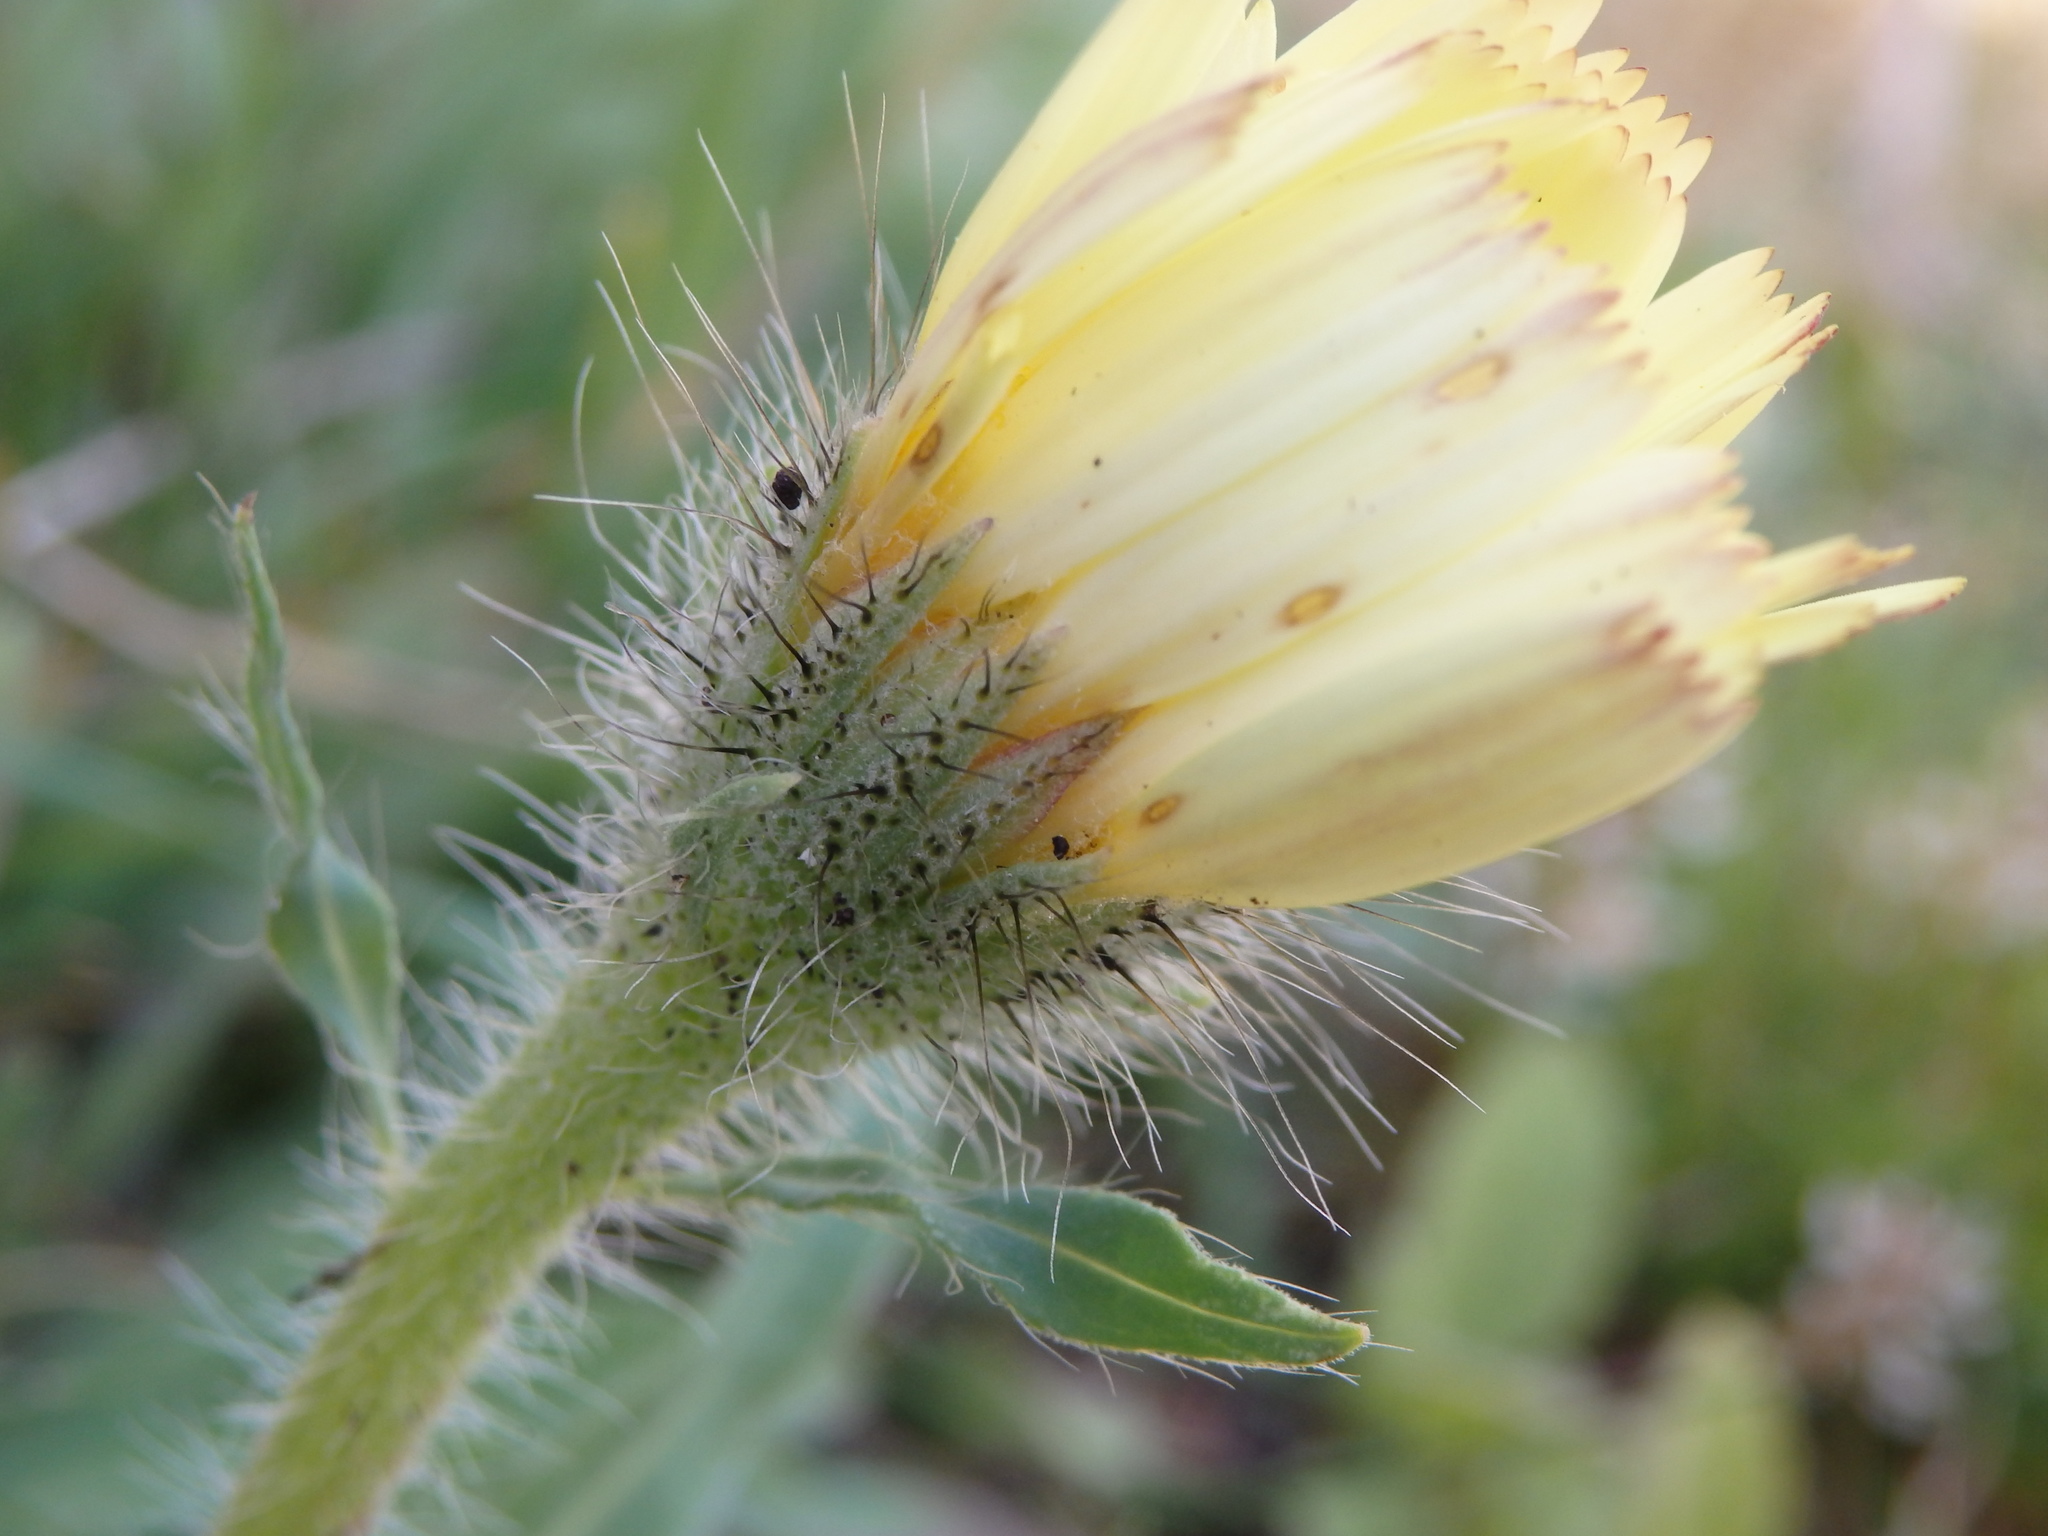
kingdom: Plantae
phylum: Tracheophyta
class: Magnoliopsida
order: Asterales
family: Asteraceae
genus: Hispidella
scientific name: Hispidella hispanica
